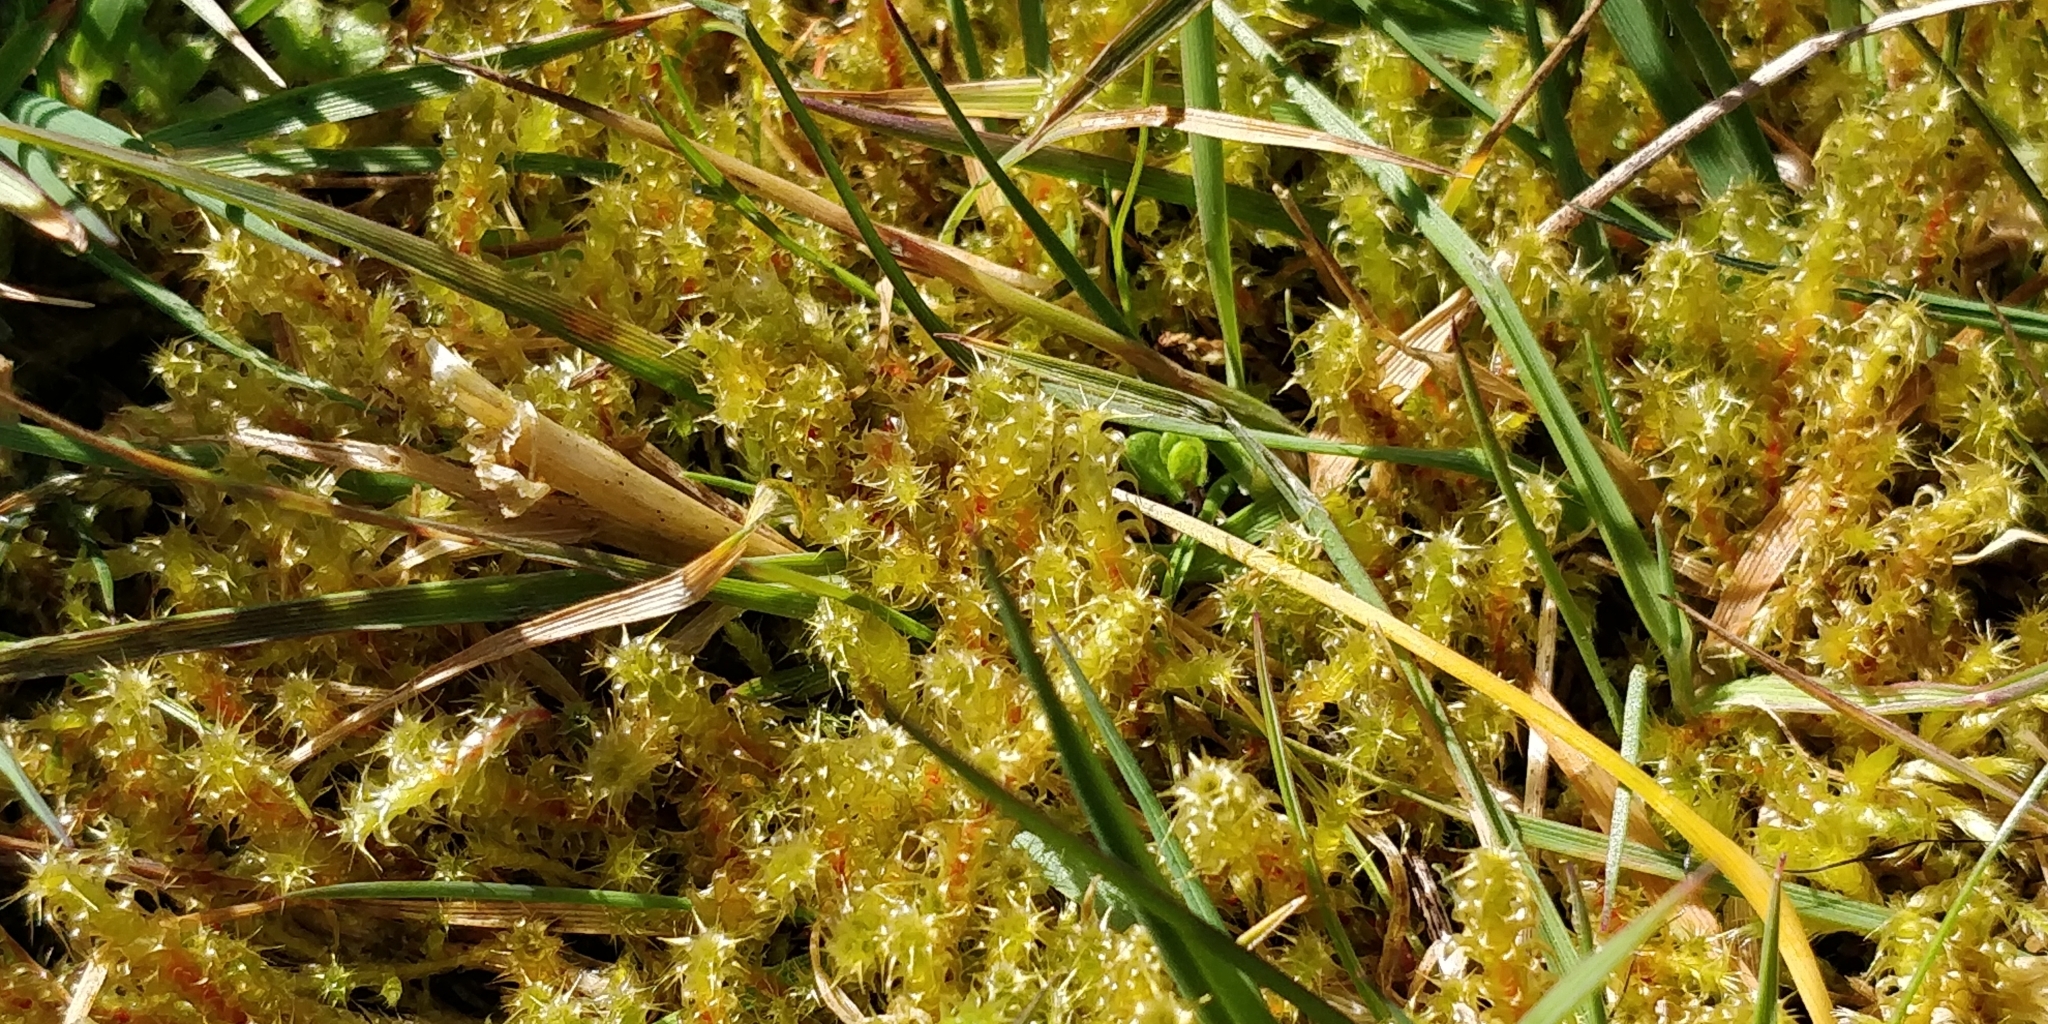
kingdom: Plantae
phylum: Bryophyta
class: Bryopsida
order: Hypnales
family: Hylocomiaceae
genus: Rhytidiadelphus
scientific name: Rhytidiadelphus squarrosus
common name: Springy turf-moss
